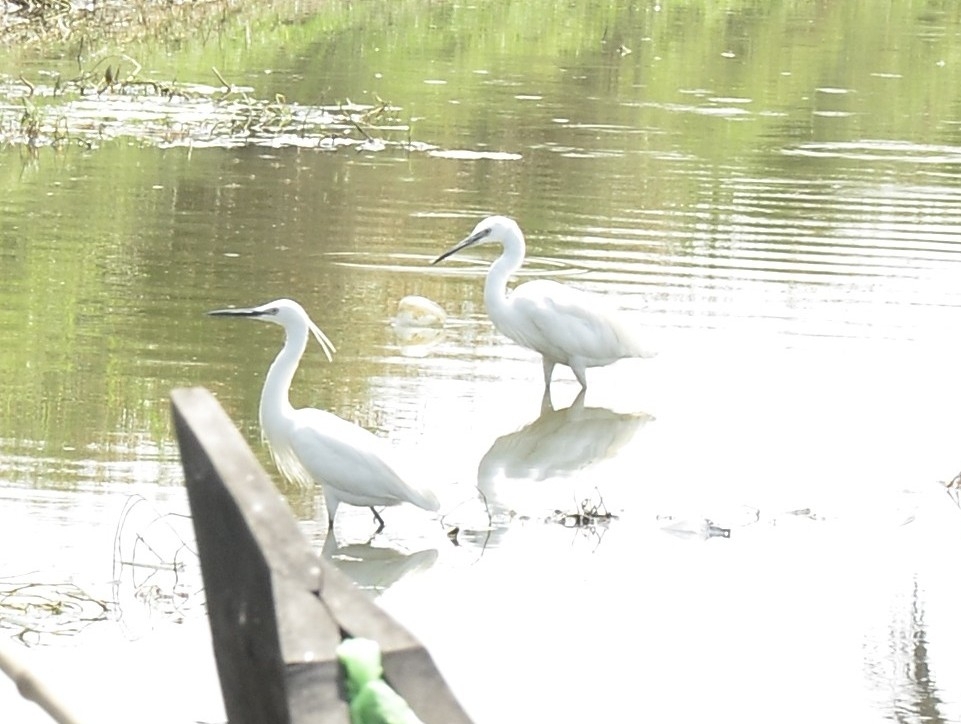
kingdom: Animalia
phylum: Chordata
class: Aves
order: Pelecaniformes
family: Ardeidae
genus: Egretta
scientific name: Egretta garzetta
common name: Little egret
